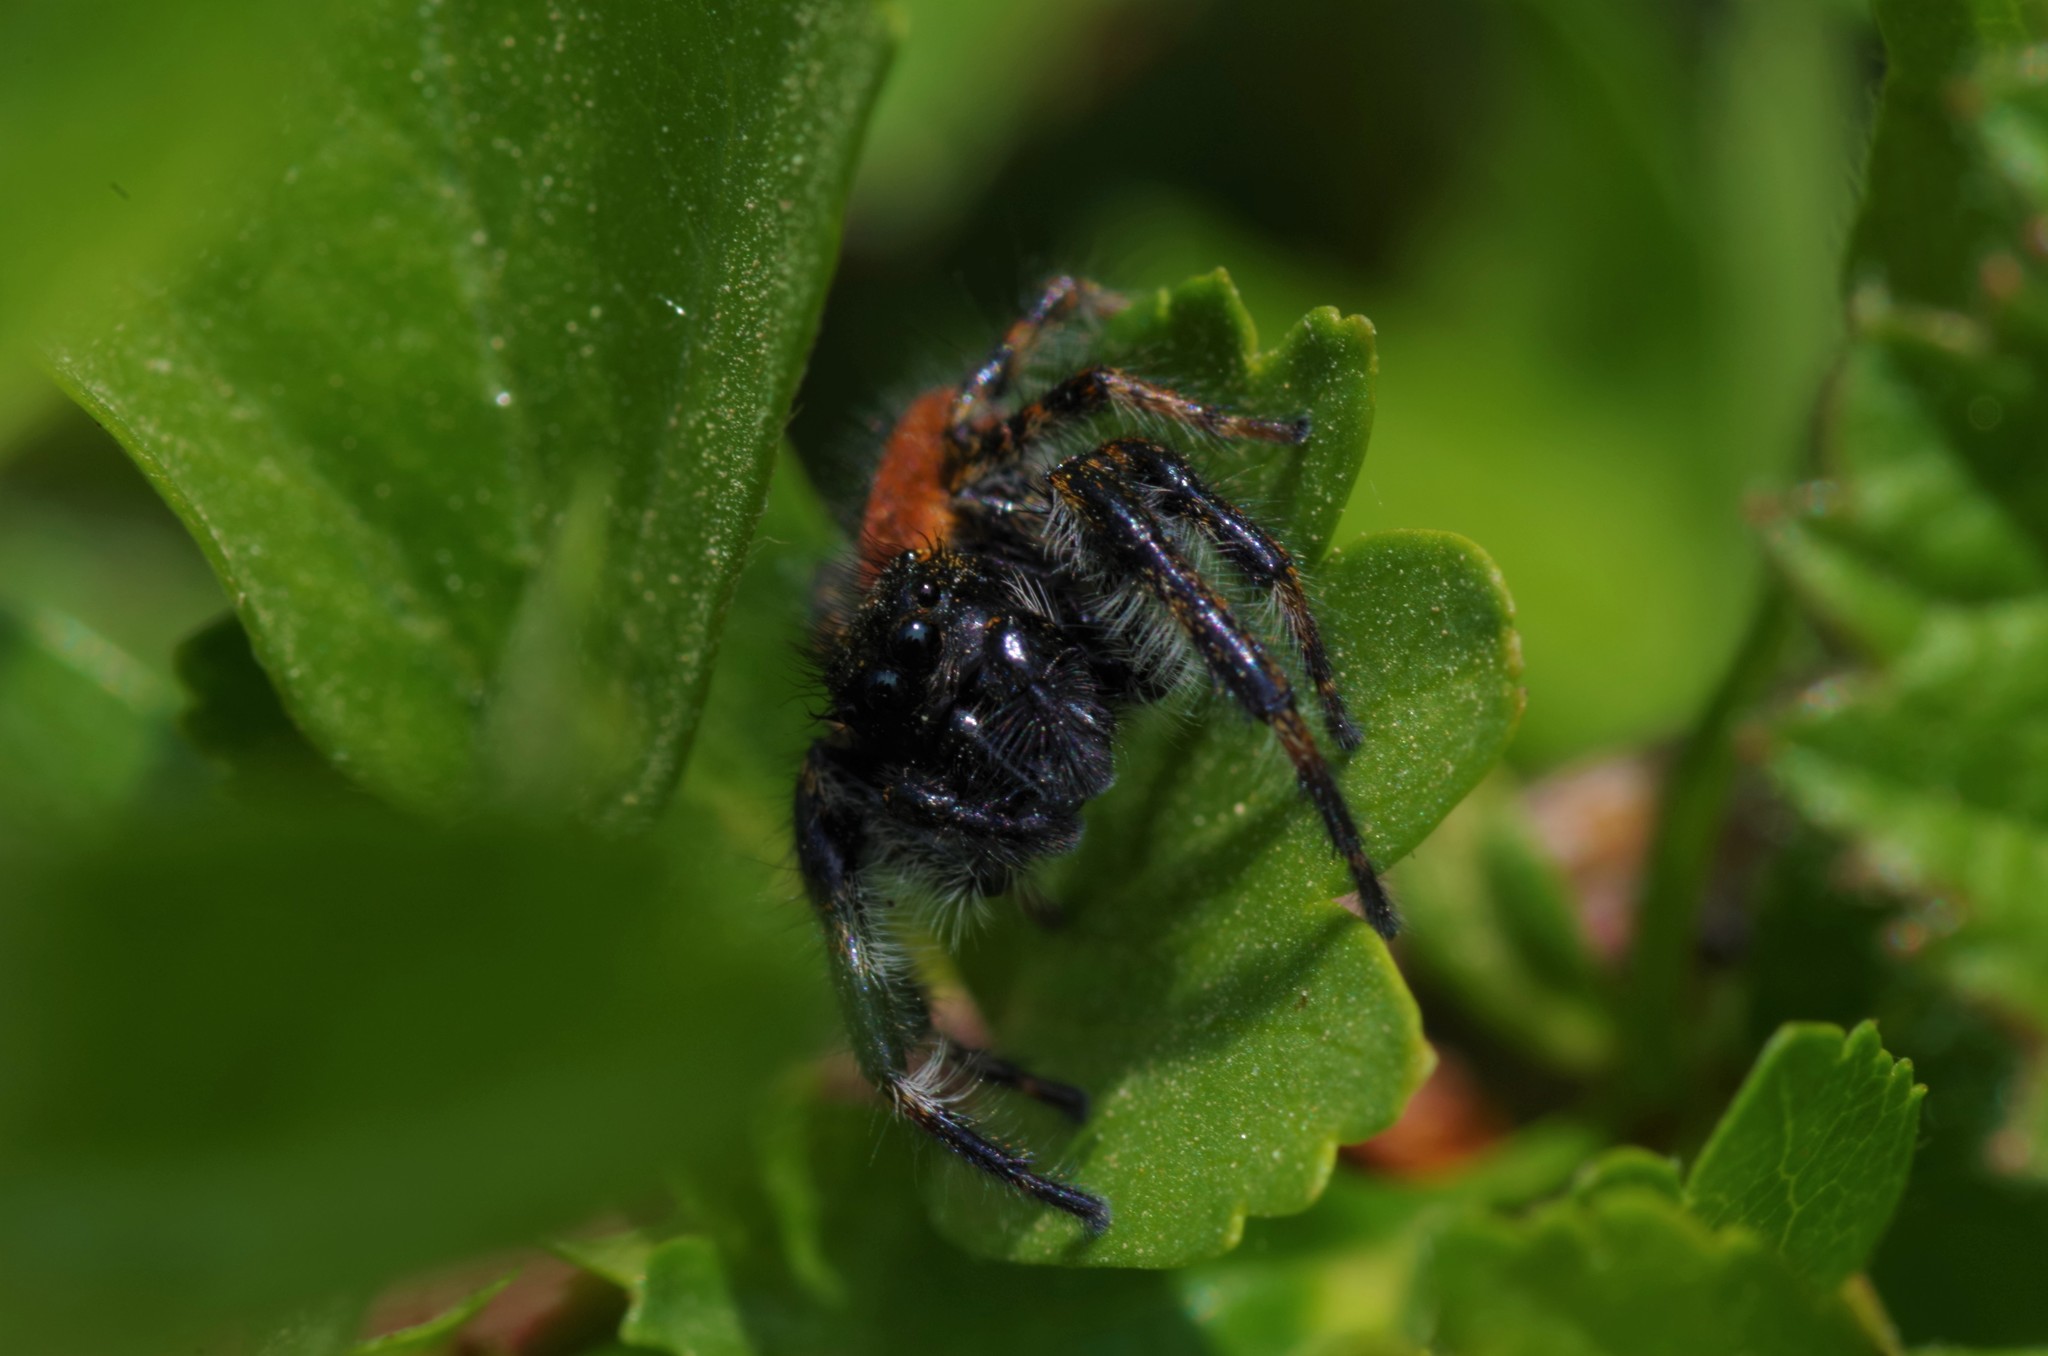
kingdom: Animalia
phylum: Arthropoda
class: Arachnida
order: Araneae
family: Salticidae
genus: Carrhotus
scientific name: Carrhotus xanthogramma
